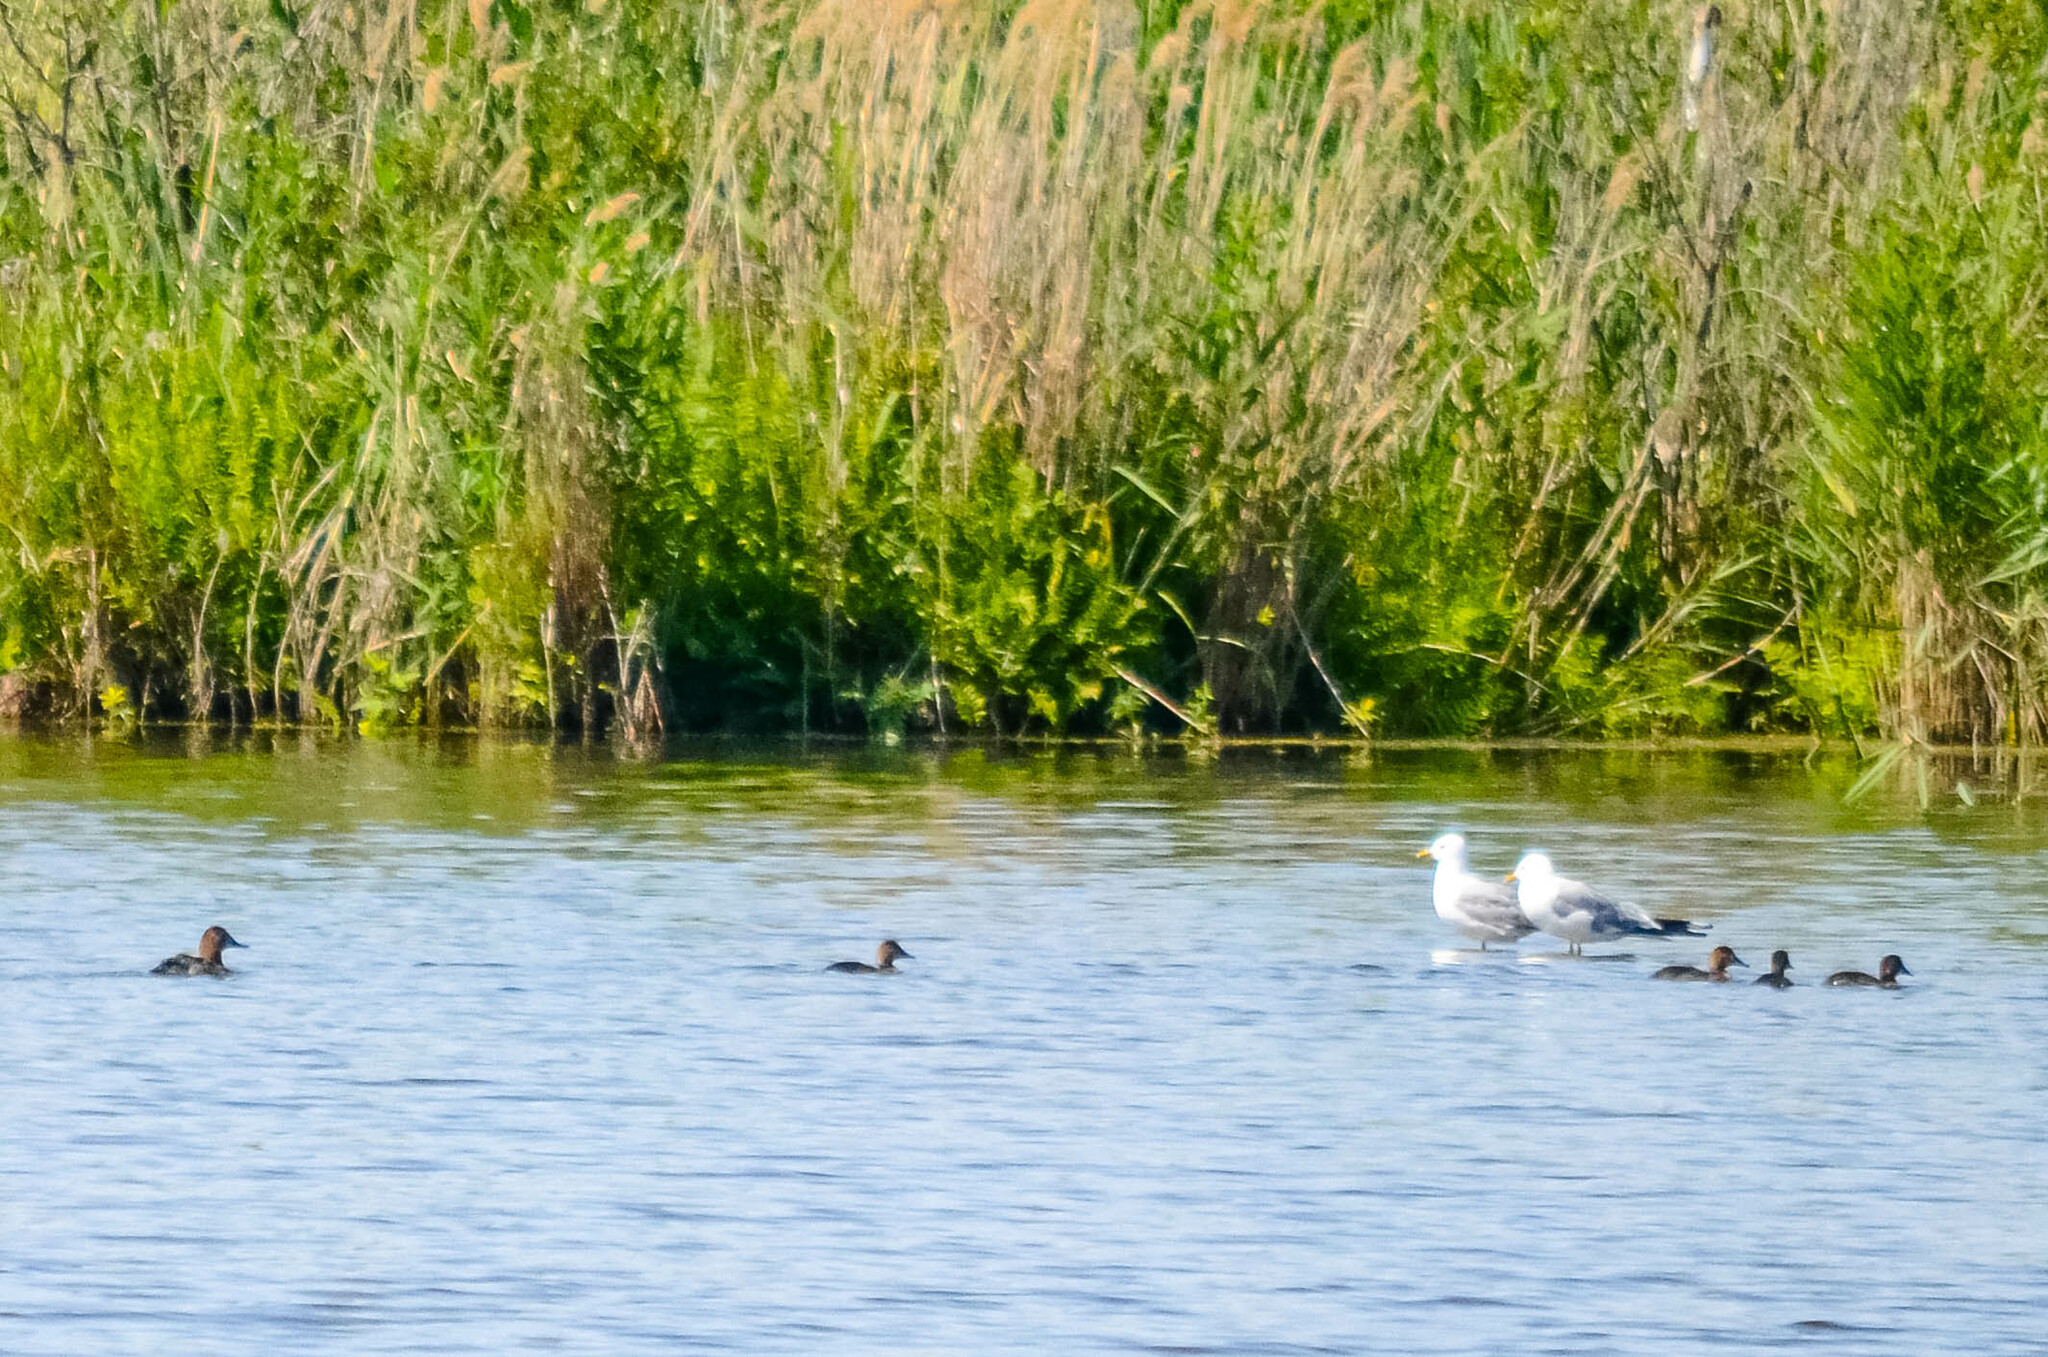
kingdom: Animalia
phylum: Chordata
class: Aves
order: Anseriformes
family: Anatidae
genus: Aythya
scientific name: Aythya ferina
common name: Common pochard
